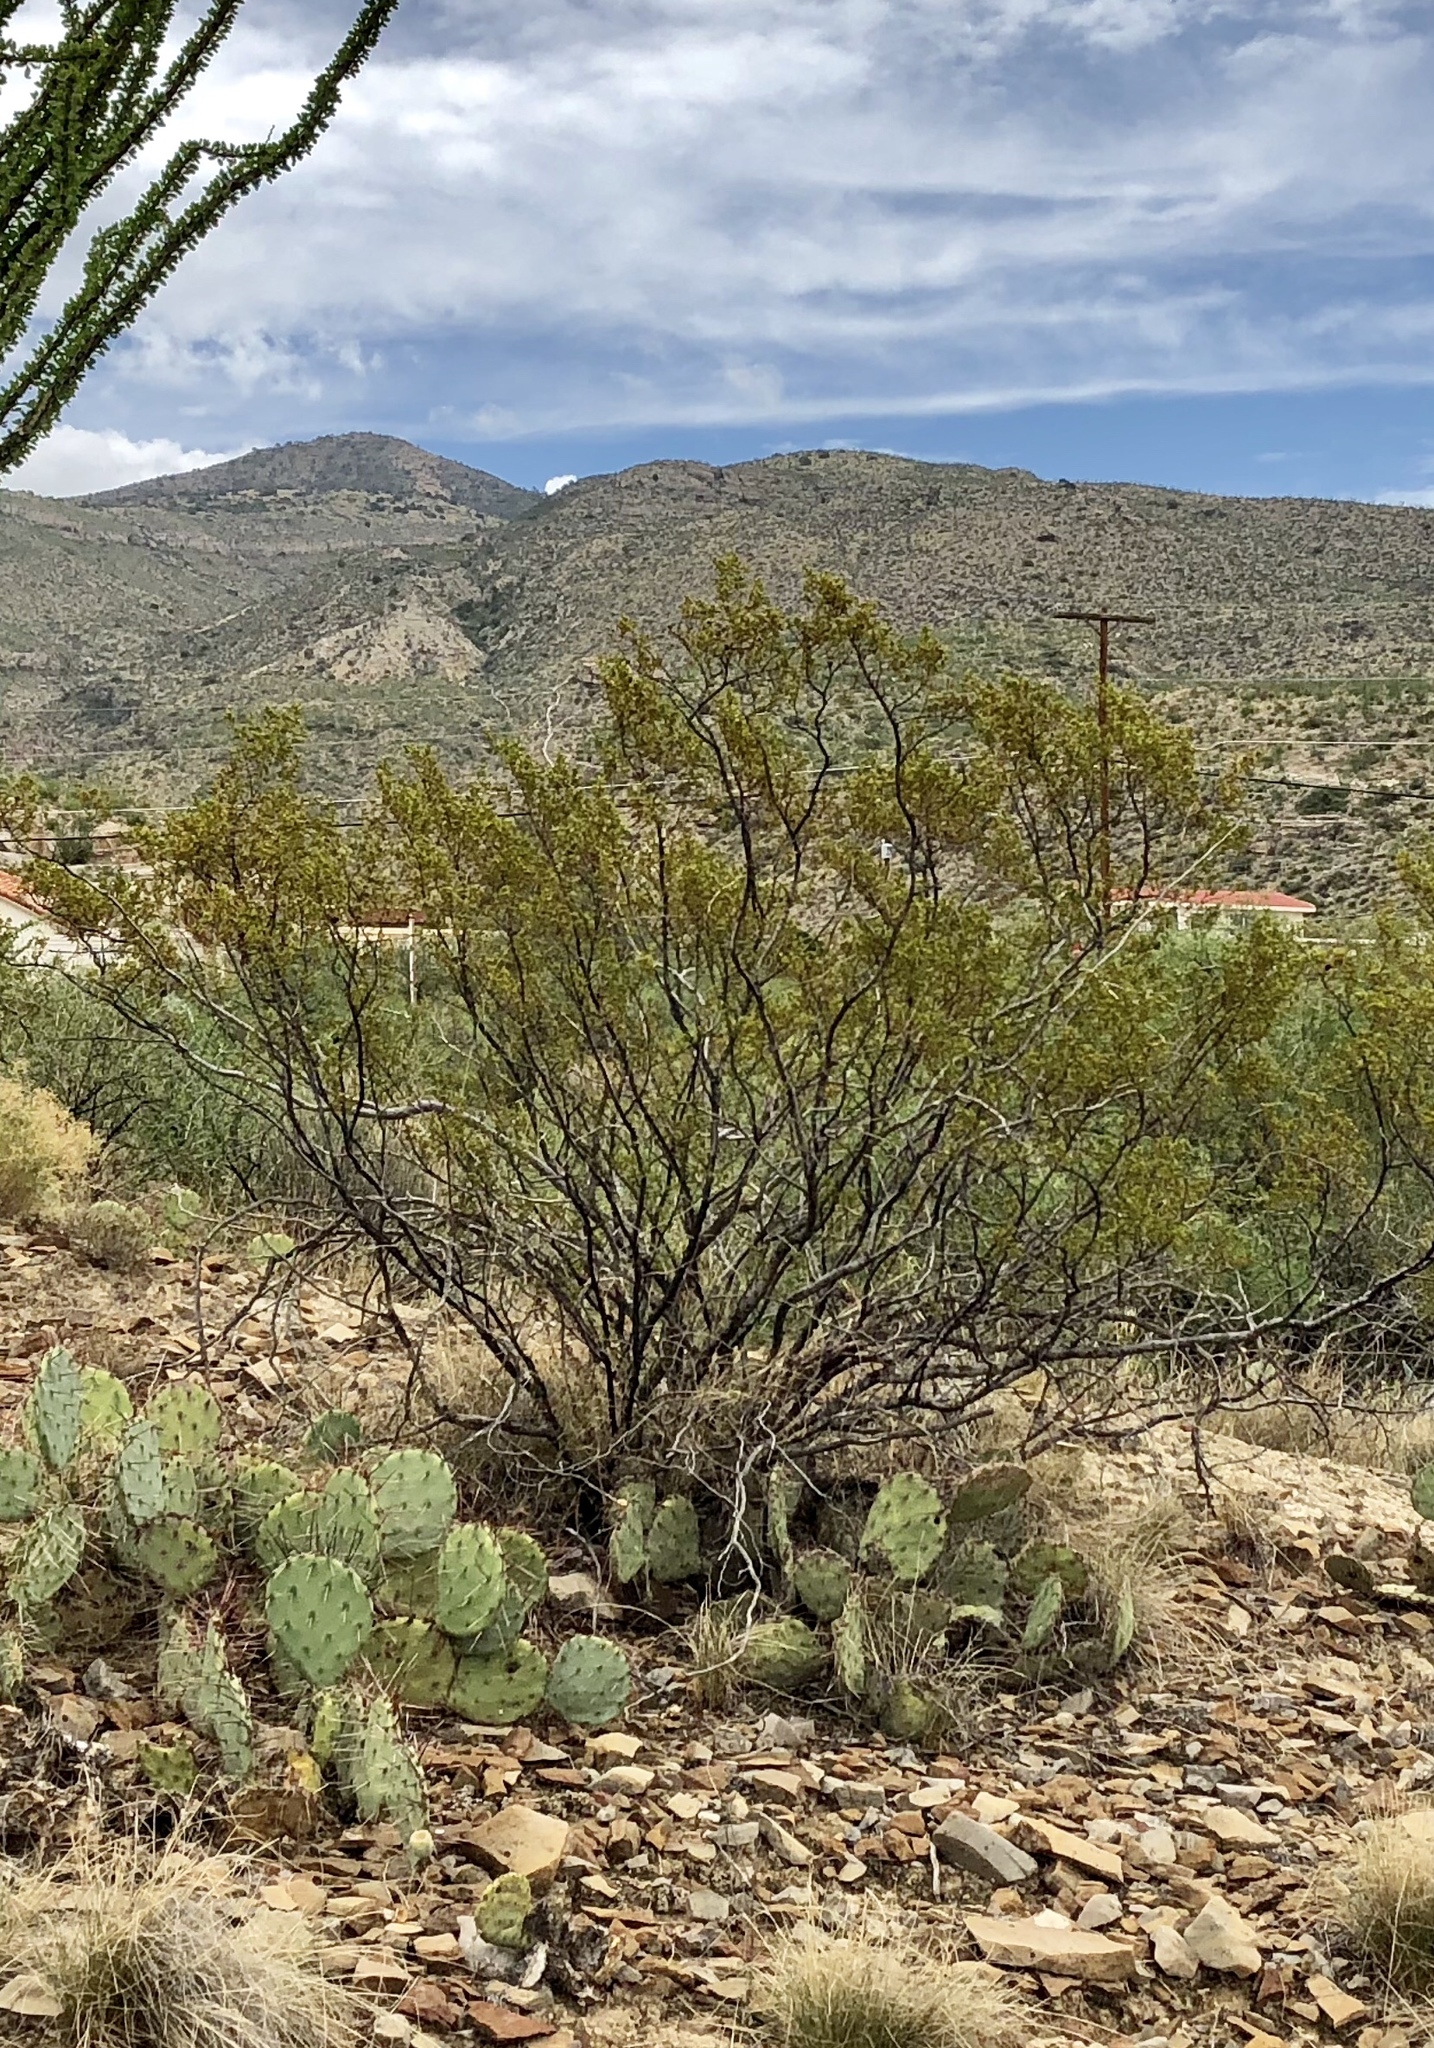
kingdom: Plantae
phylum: Tracheophyta
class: Magnoliopsida
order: Zygophyllales
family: Zygophyllaceae
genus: Larrea
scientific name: Larrea tridentata
